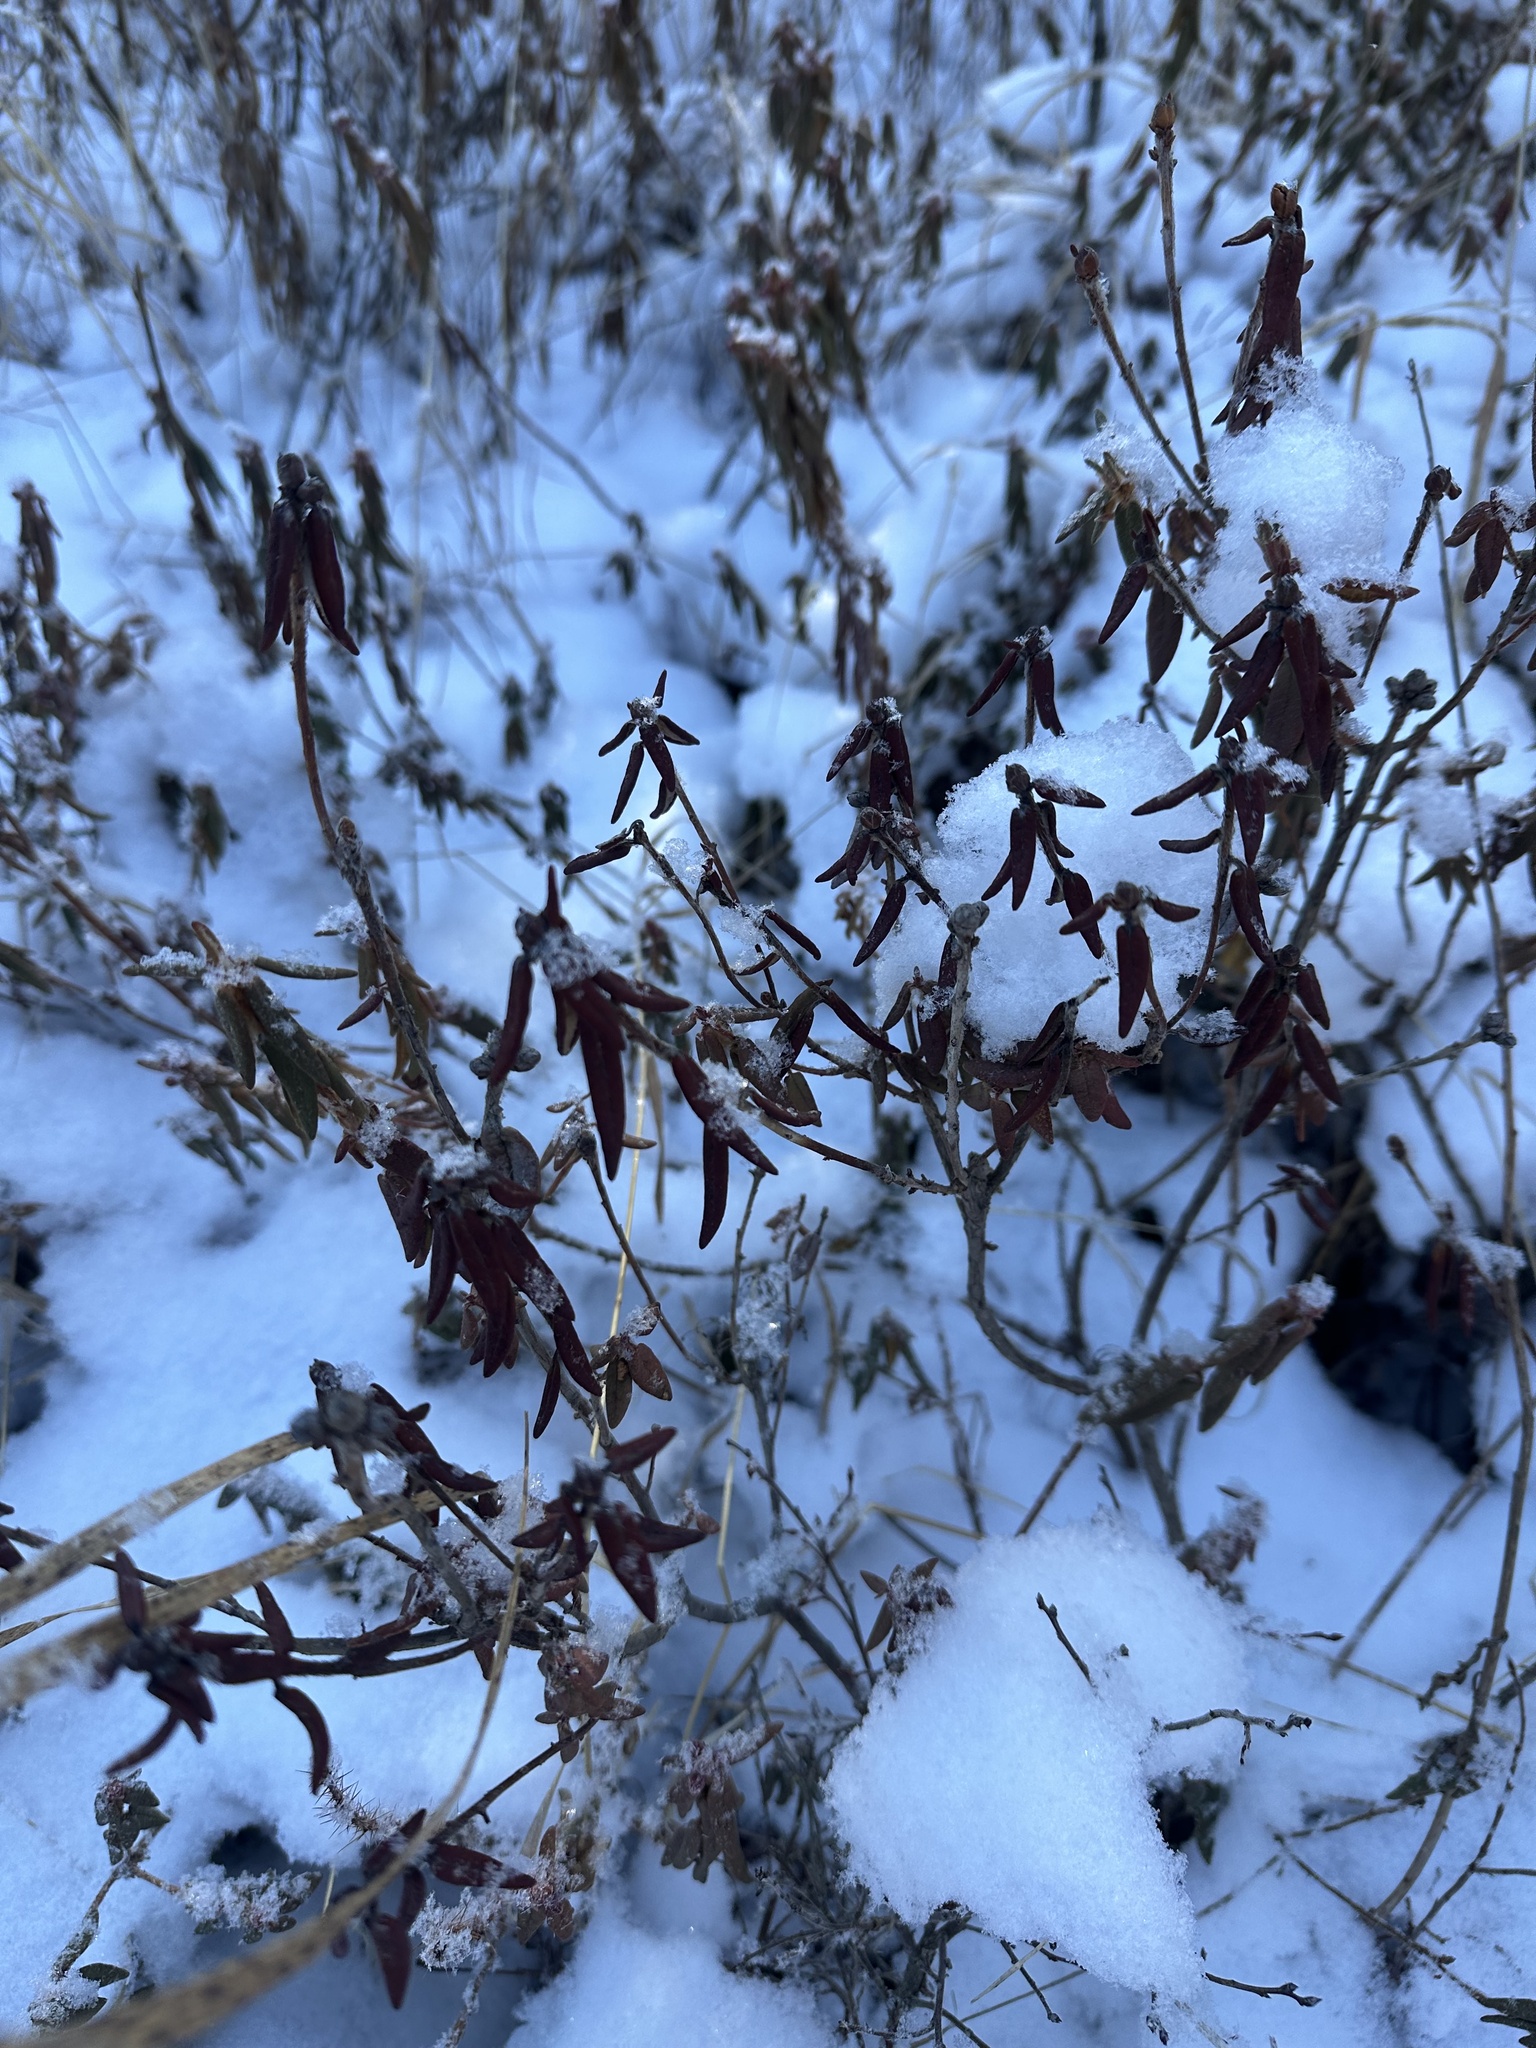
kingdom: Plantae
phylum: Tracheophyta
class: Magnoliopsida
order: Ericales
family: Ericaceae
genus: Rhododendron
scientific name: Rhododendron groenlandicum
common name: Bog labrador tea
